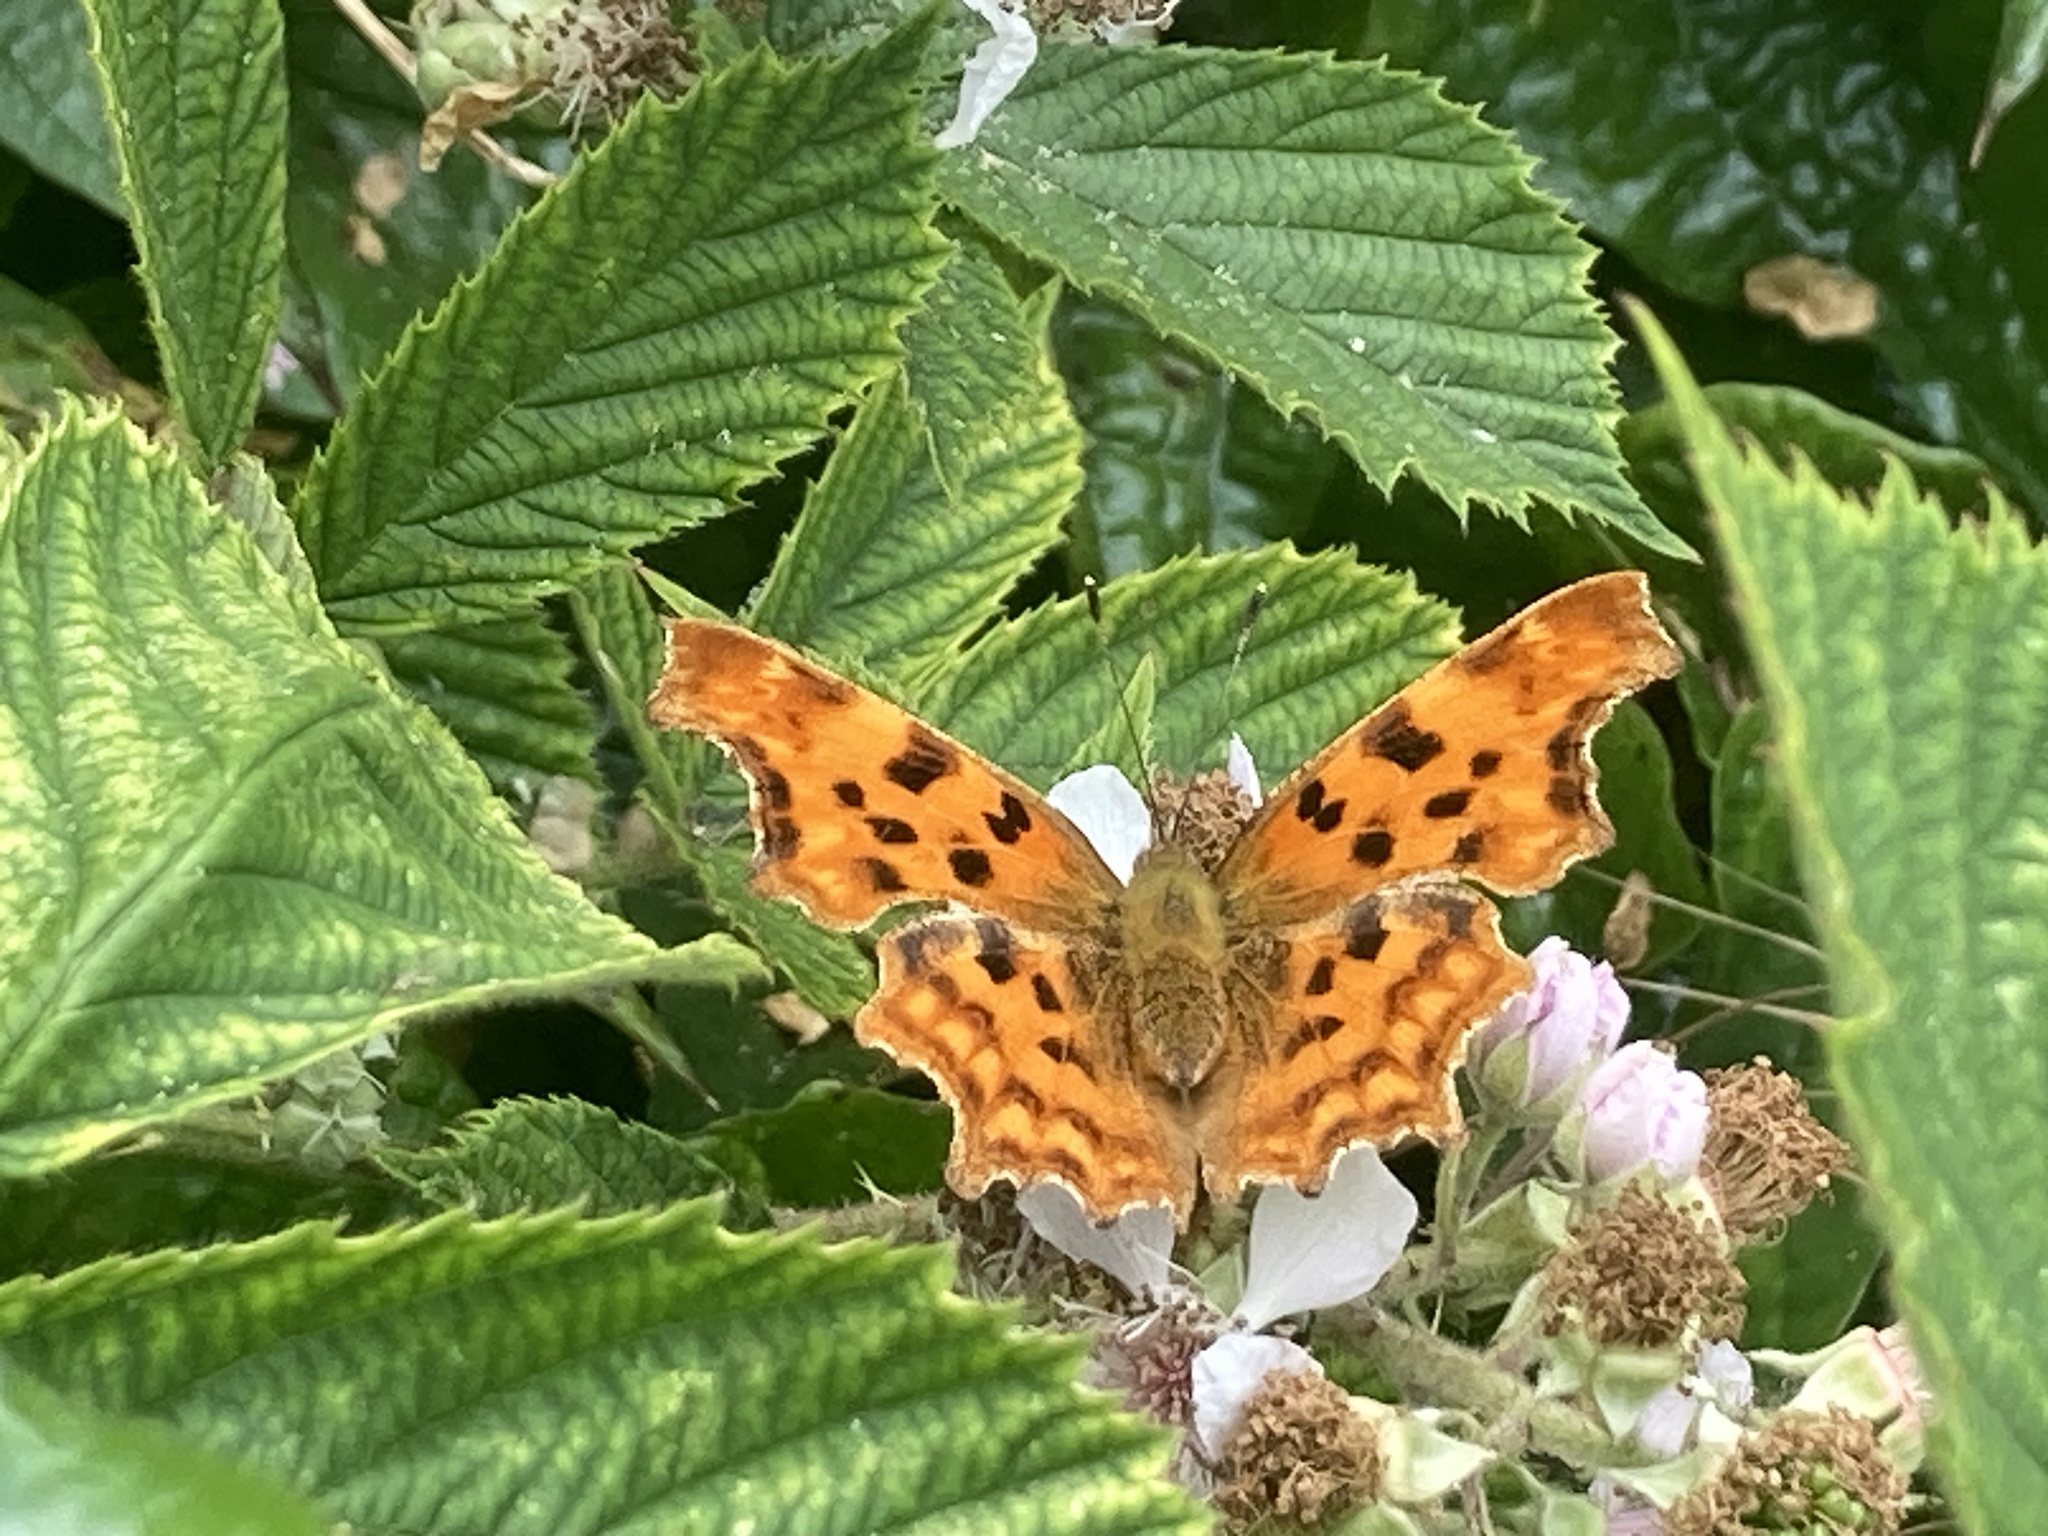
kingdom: Animalia
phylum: Arthropoda
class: Insecta
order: Lepidoptera
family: Nymphalidae
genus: Polygonia
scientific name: Polygonia c-album
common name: Comma
